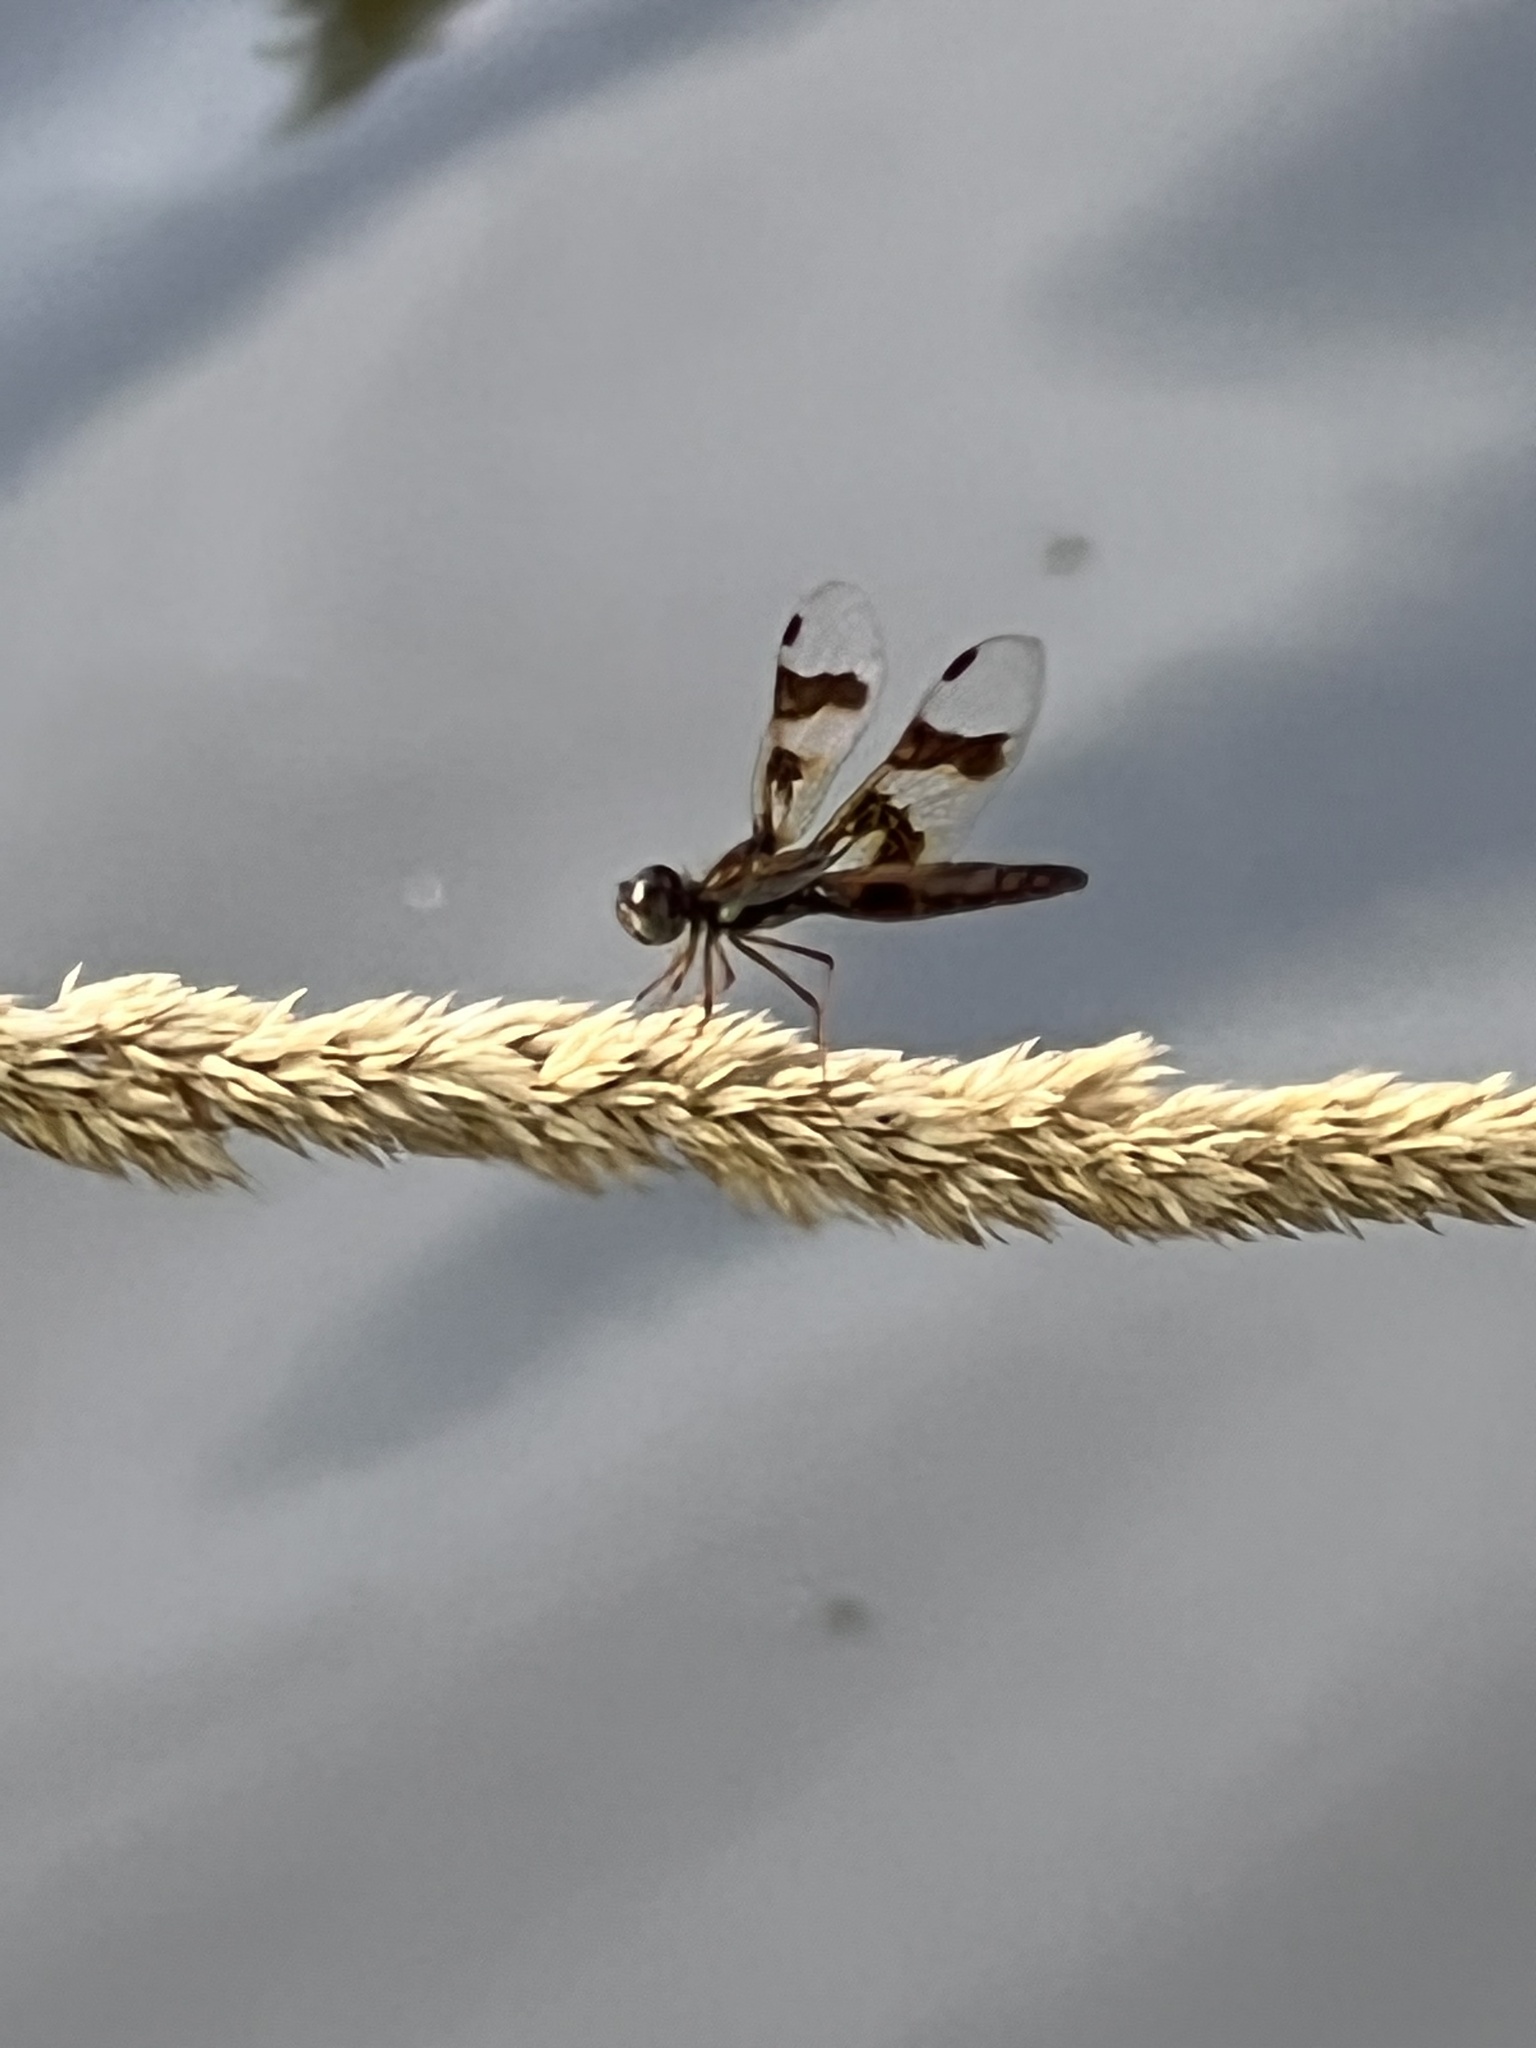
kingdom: Animalia
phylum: Arthropoda
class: Insecta
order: Odonata
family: Libellulidae
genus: Perithemis
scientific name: Perithemis tenera
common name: Eastern amberwing
